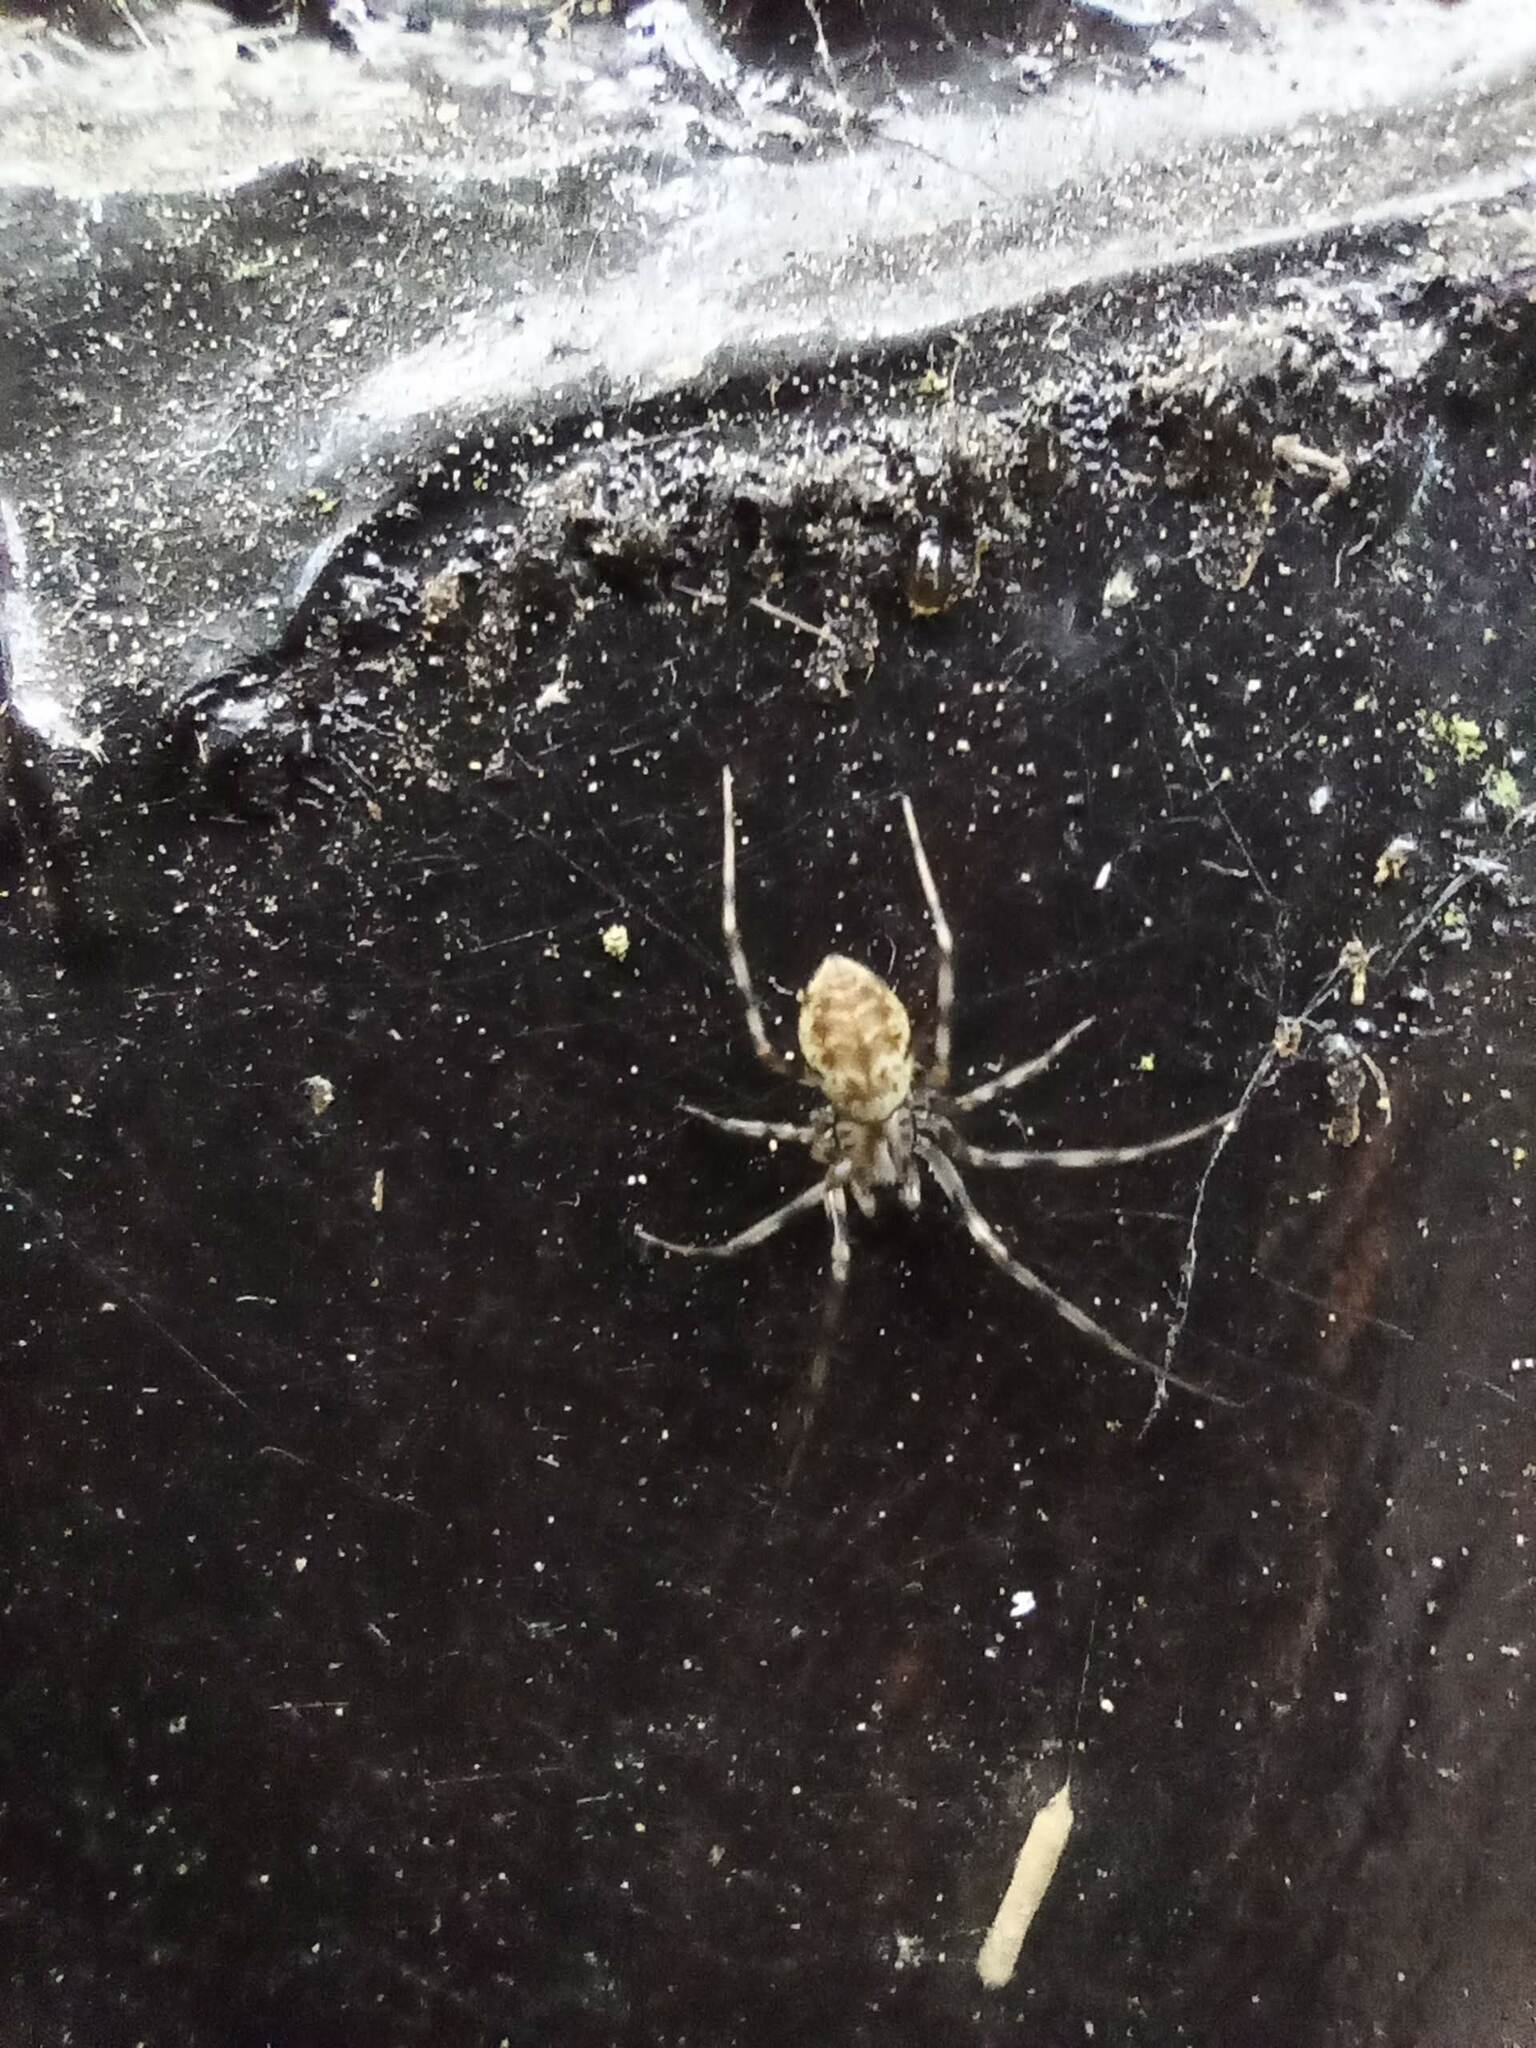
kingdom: Animalia
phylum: Arthropoda
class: Arachnida
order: Araneae
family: Linyphiidae
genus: Drapetisca
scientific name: Drapetisca socialis
